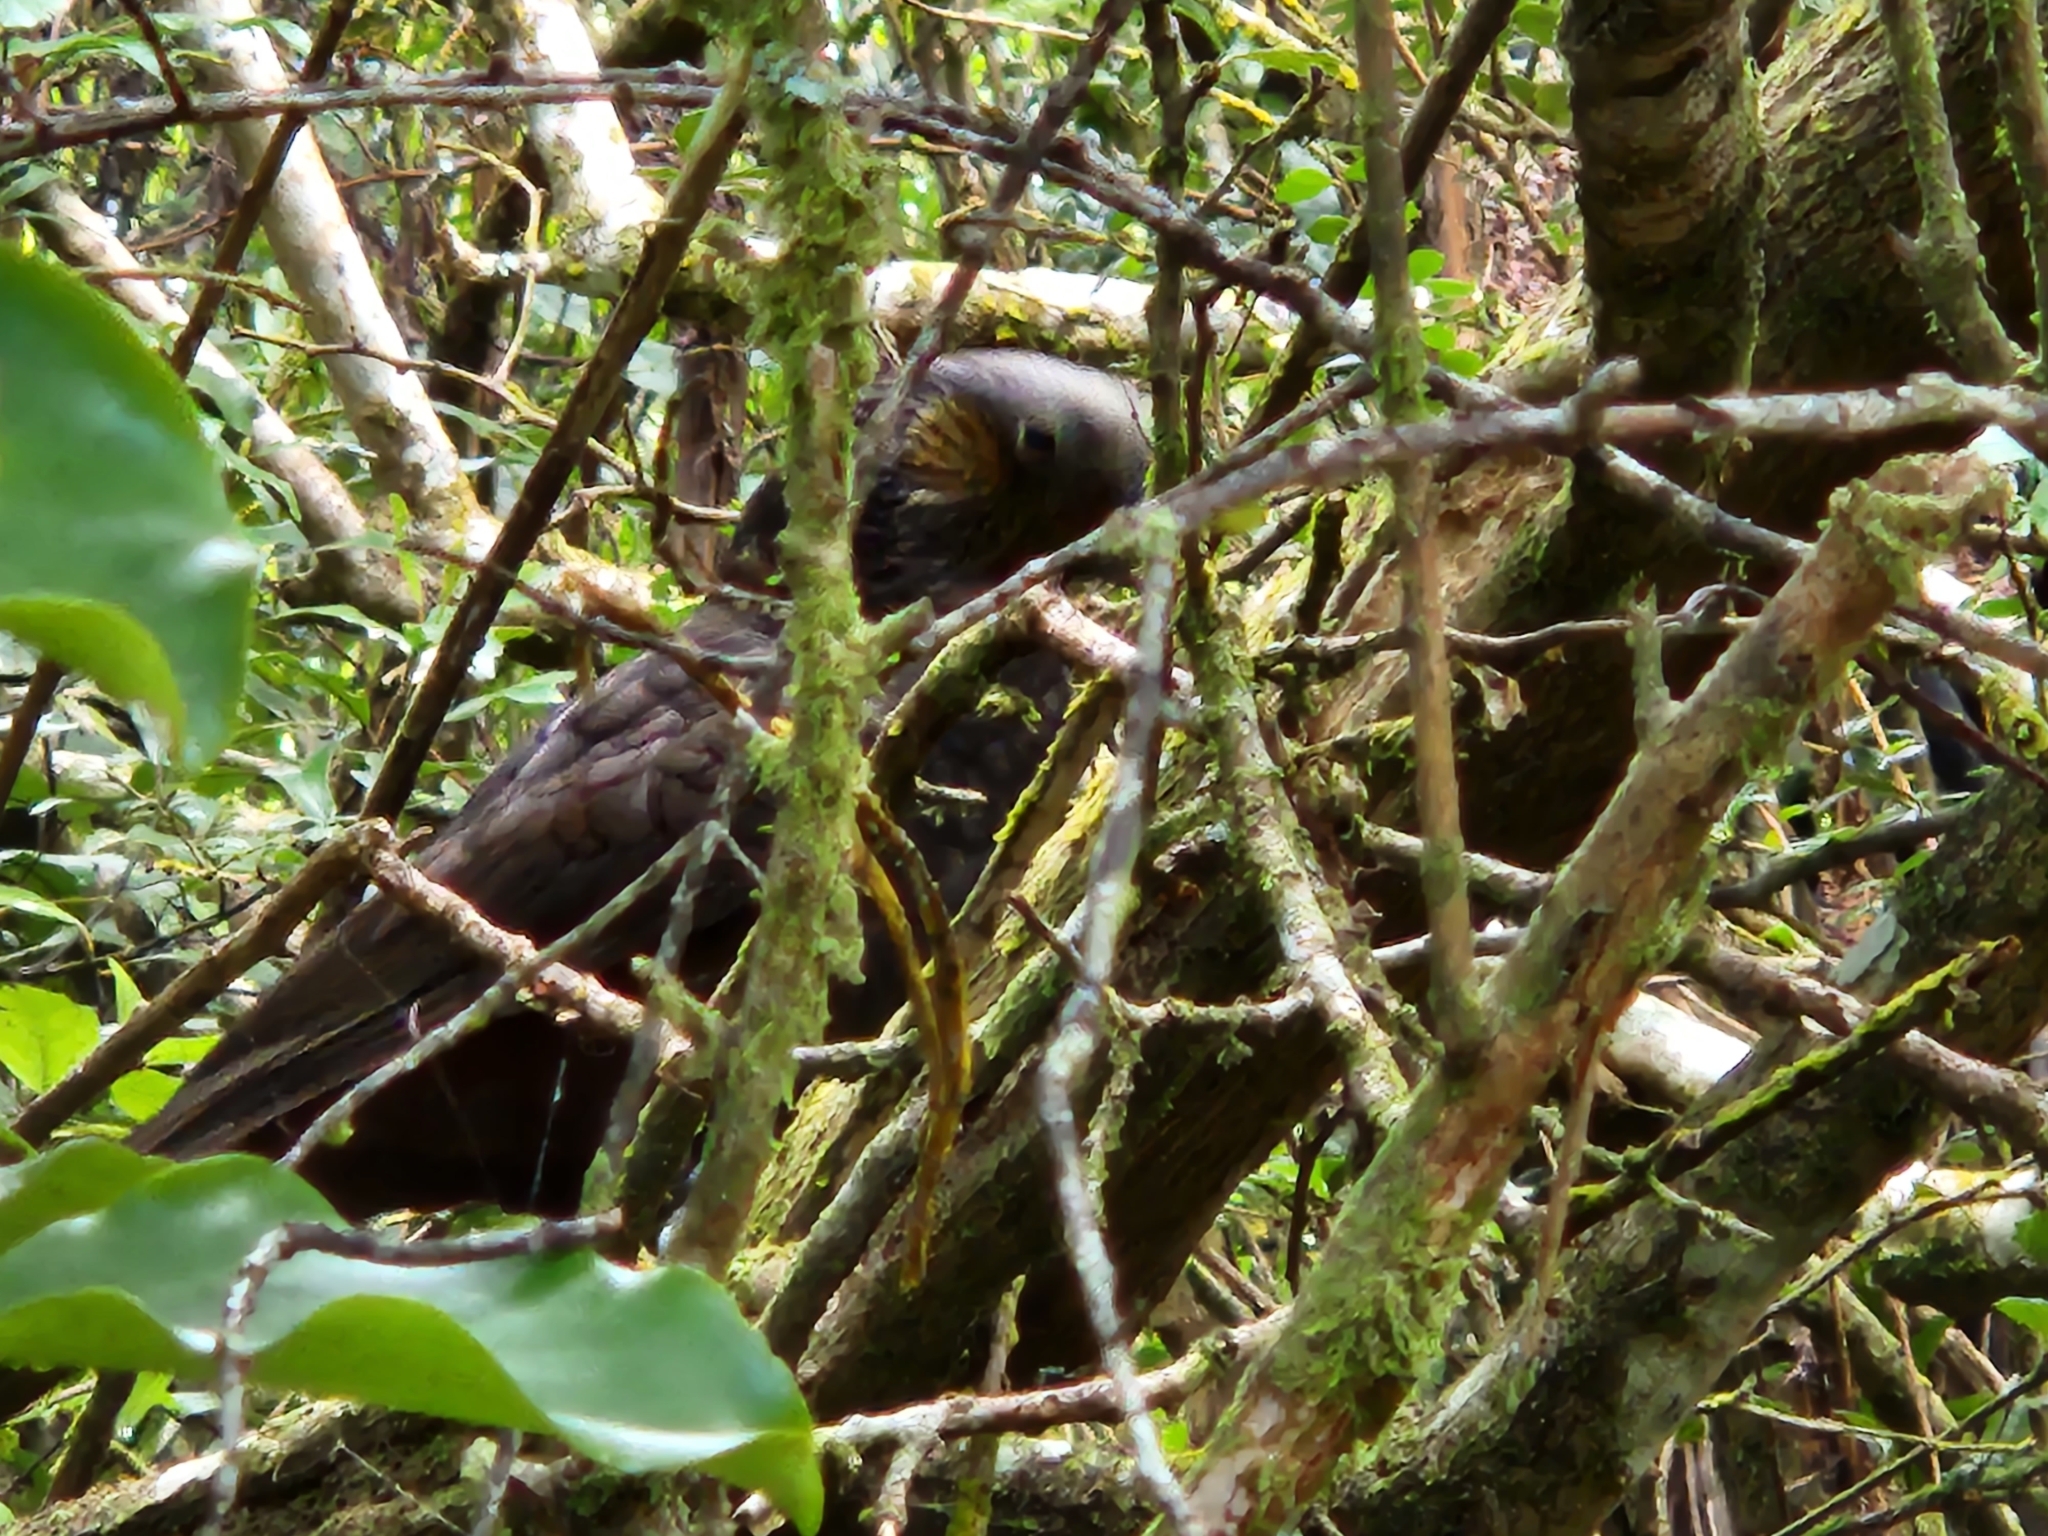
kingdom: Animalia
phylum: Chordata
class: Aves
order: Psittaciformes
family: Psittacidae
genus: Nestor
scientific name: Nestor meridionalis
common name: New zealand kaka
